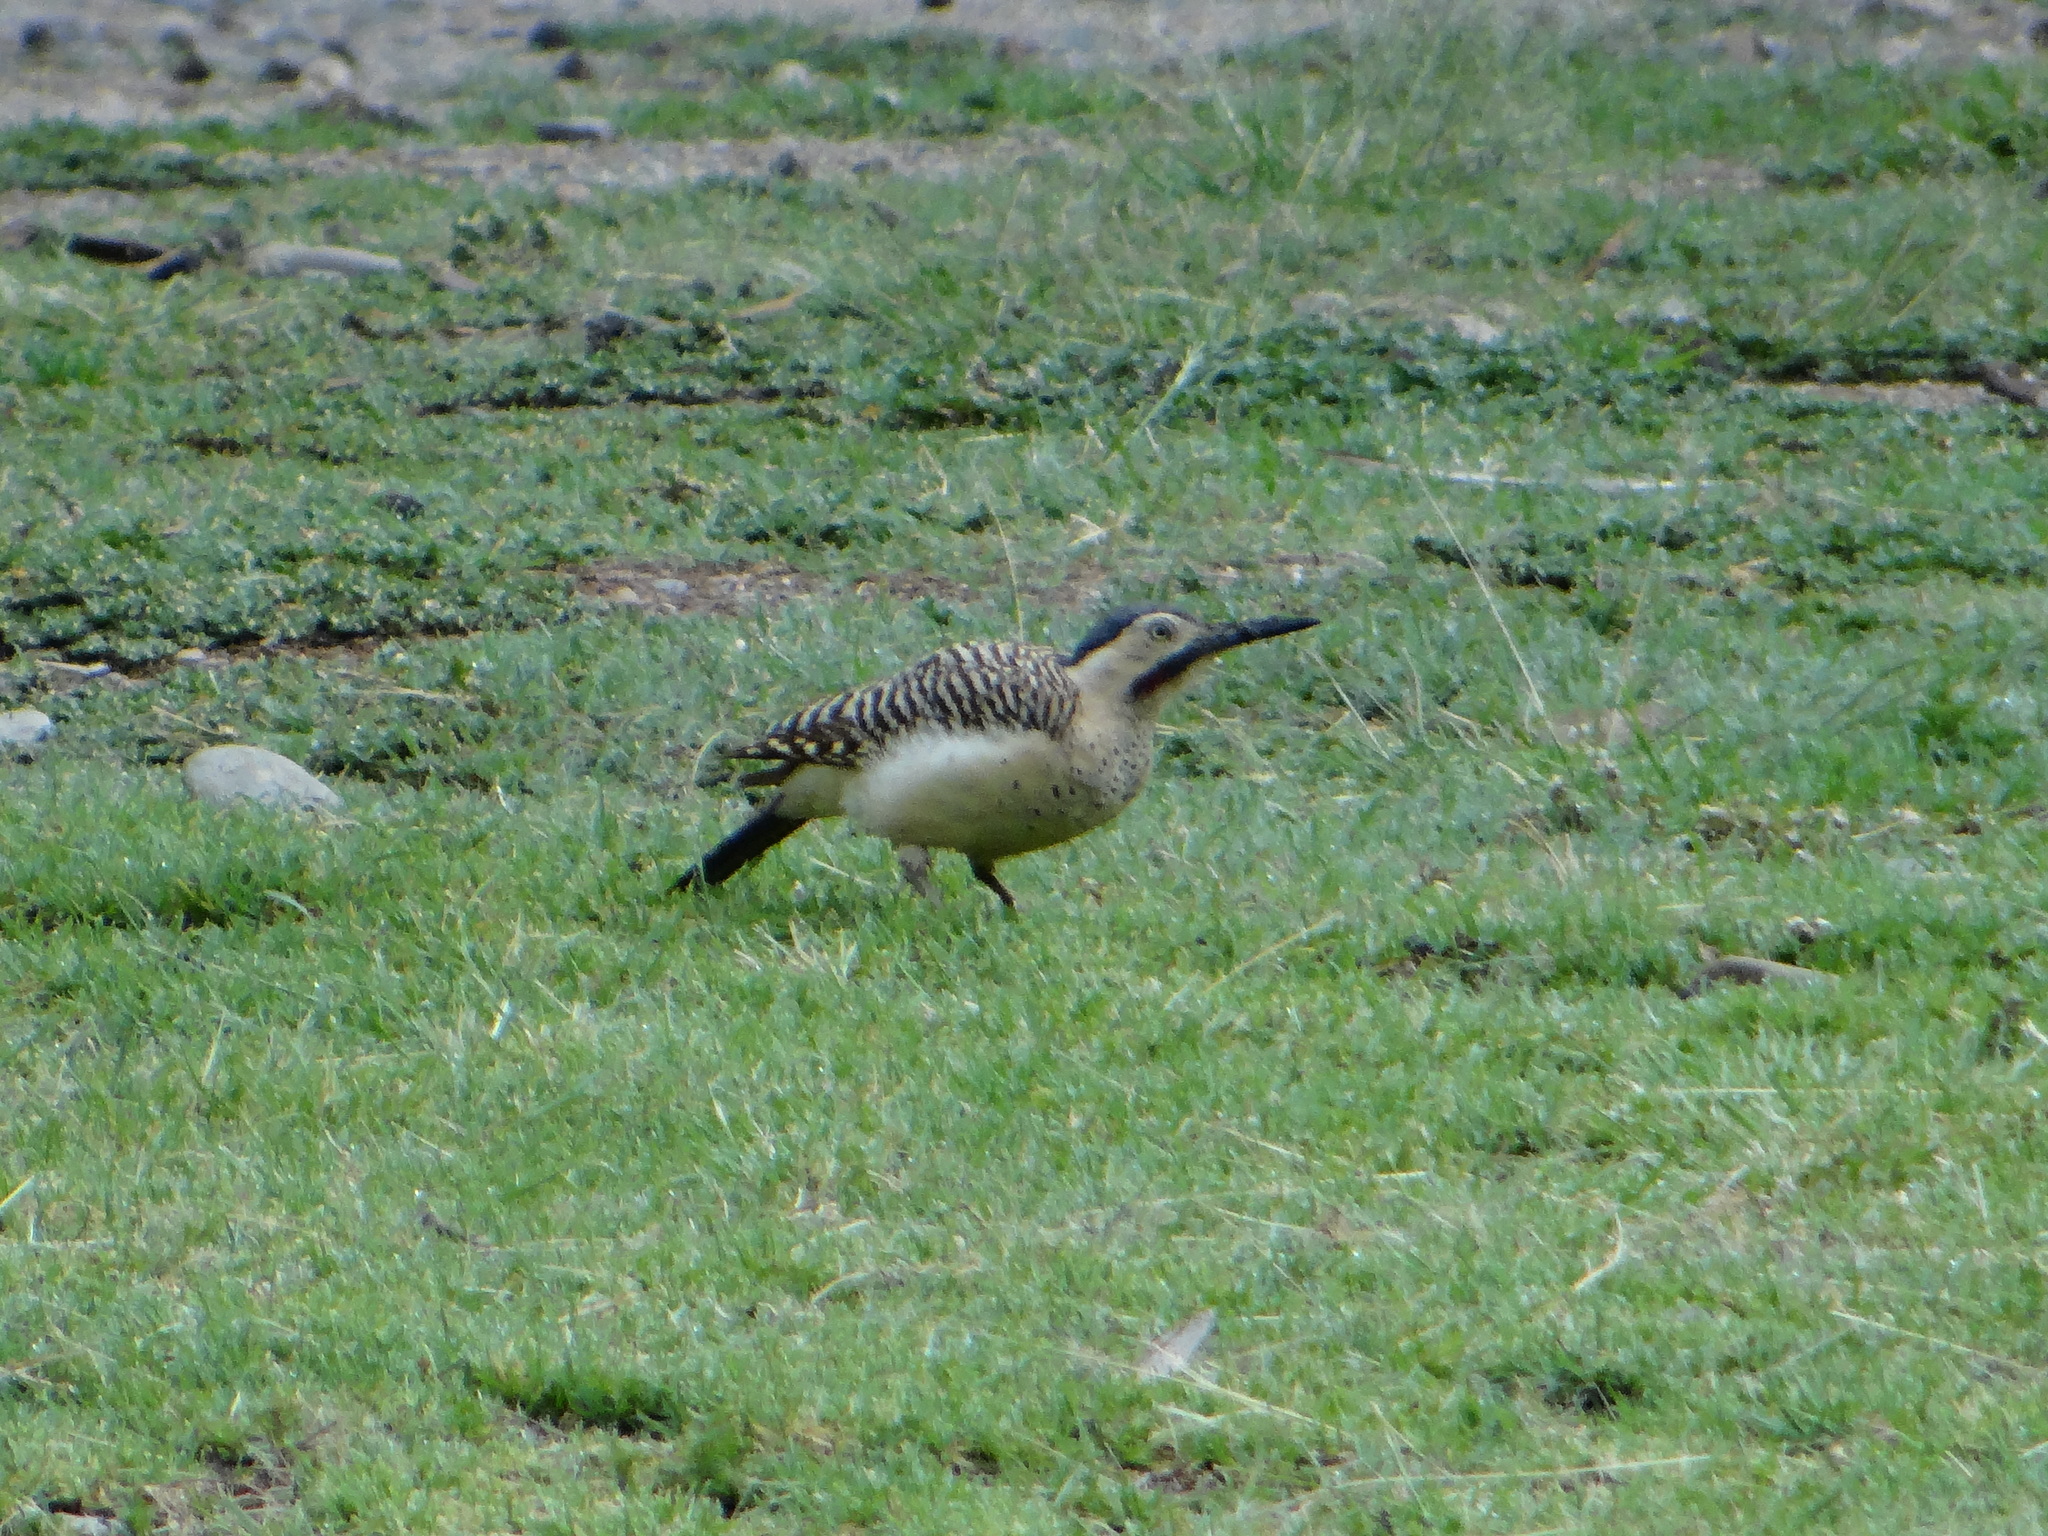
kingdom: Animalia
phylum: Chordata
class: Aves
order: Piciformes
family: Picidae
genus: Colaptes
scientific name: Colaptes rupicola
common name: Andean flicker
